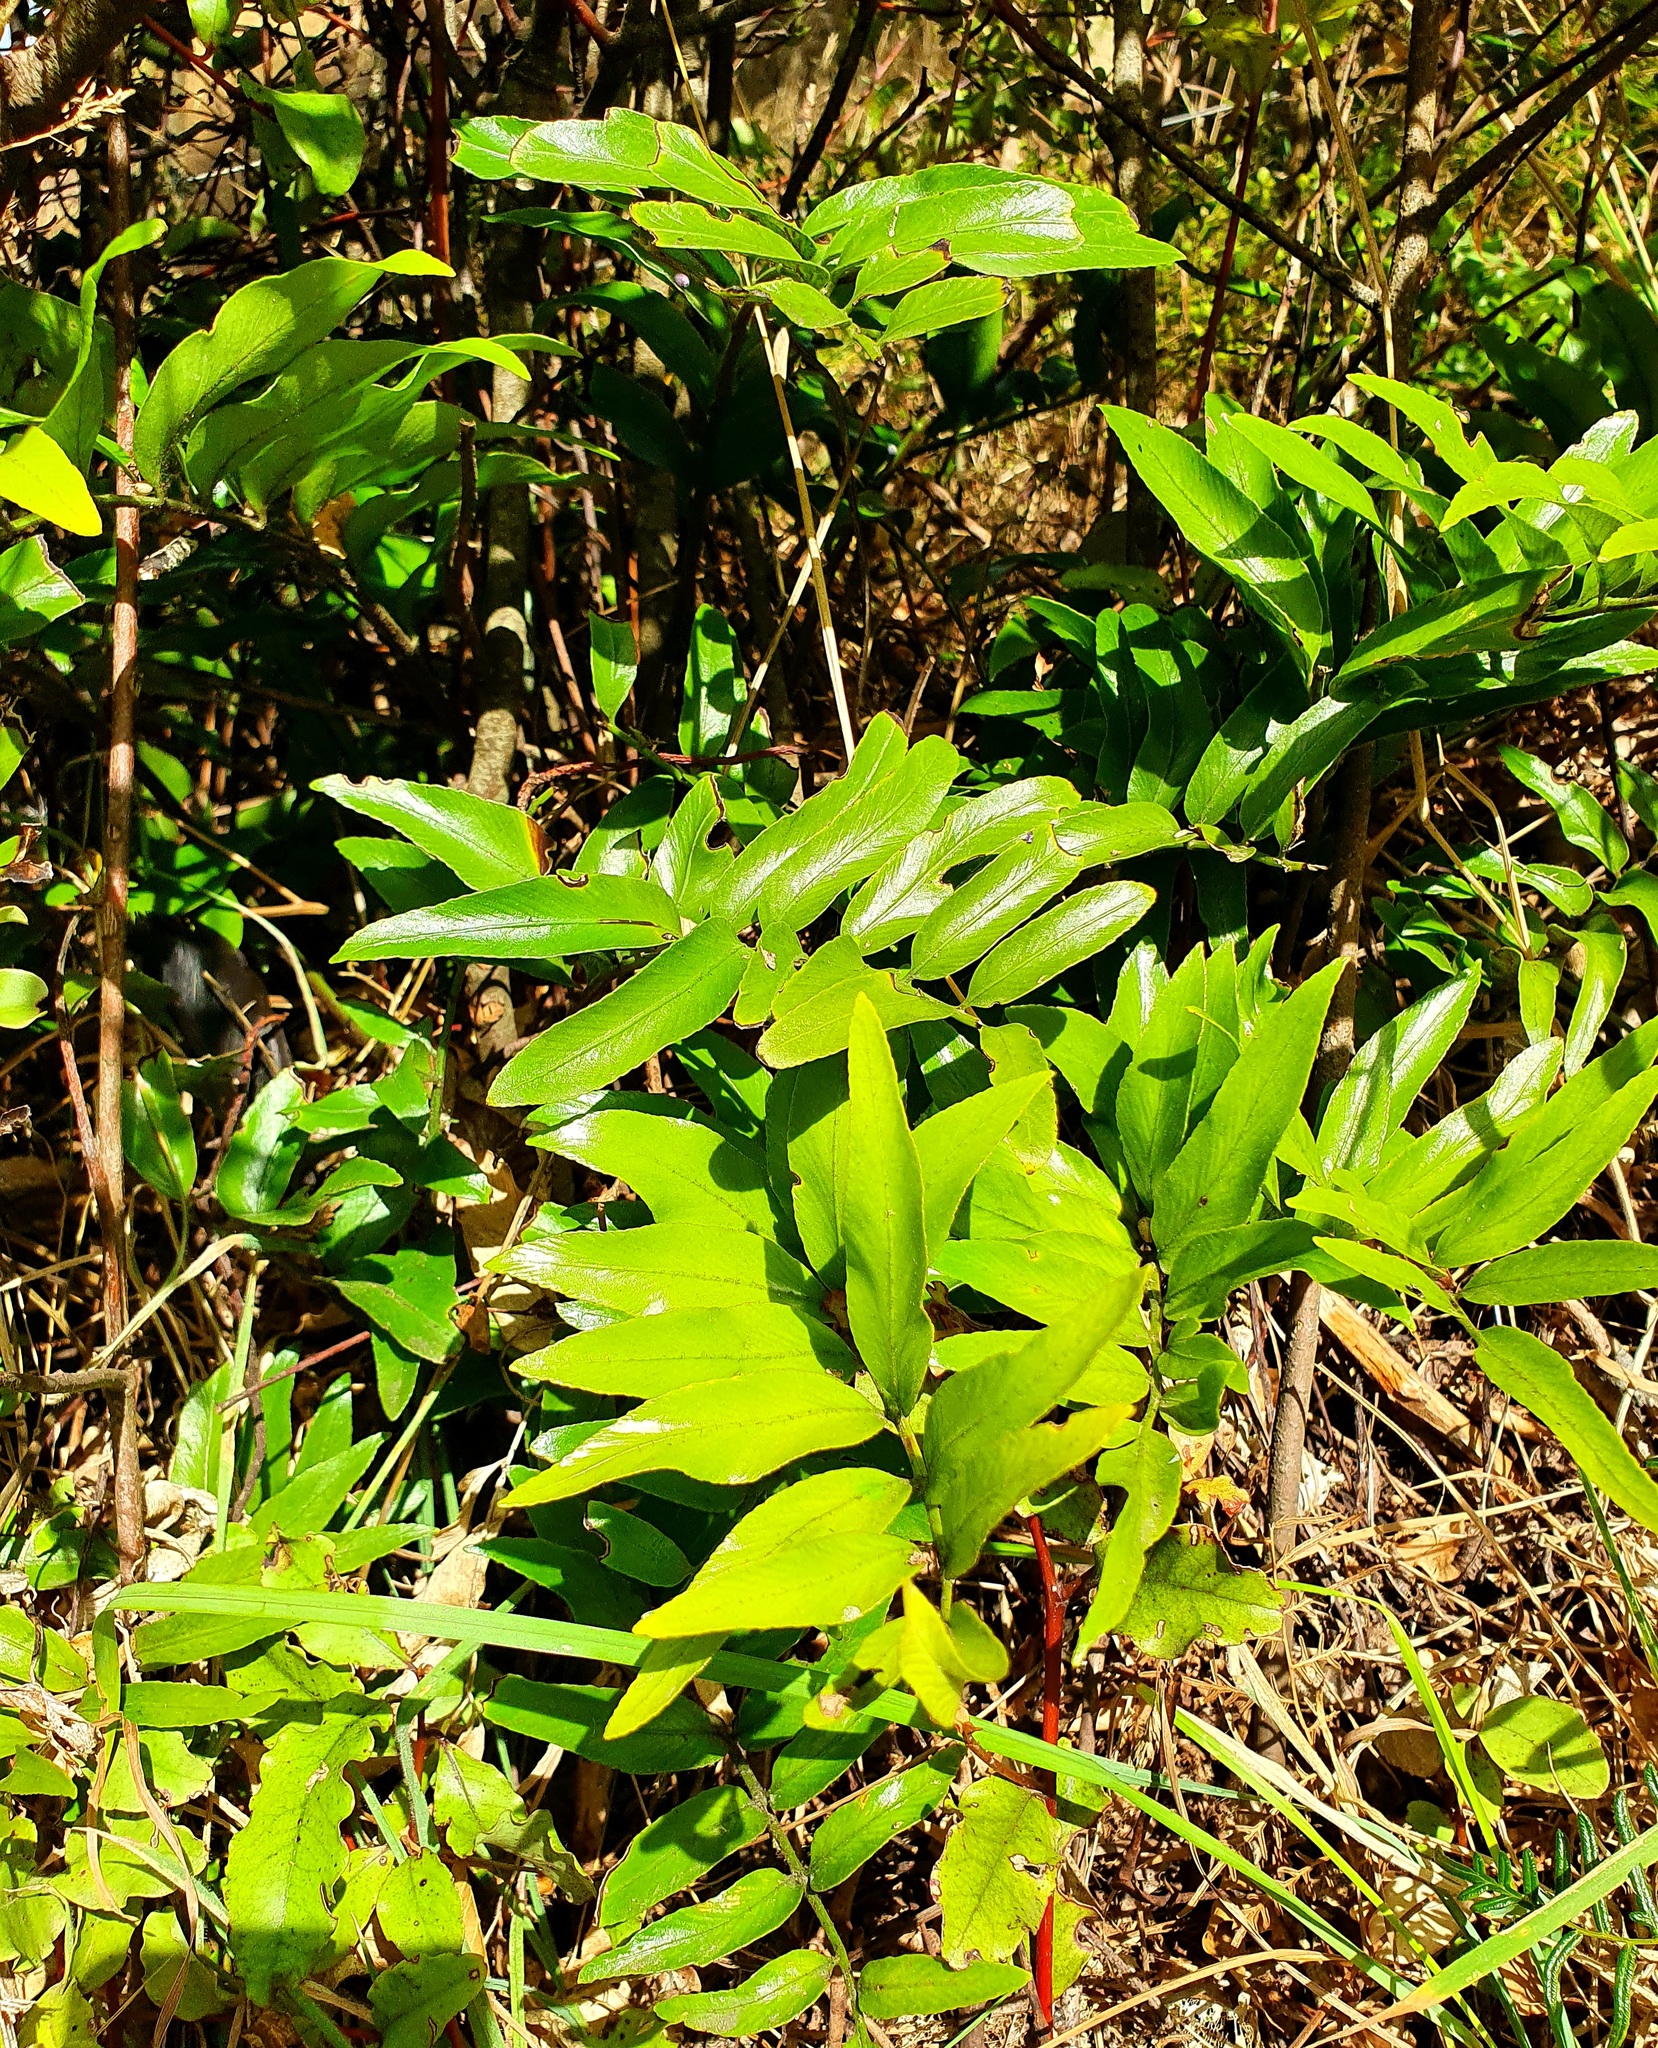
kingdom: Plantae
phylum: Tracheophyta
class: Polypodiopsida
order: Polypodiales
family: Aspleniaceae
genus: Asplenium
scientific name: Asplenium oblongifolium
